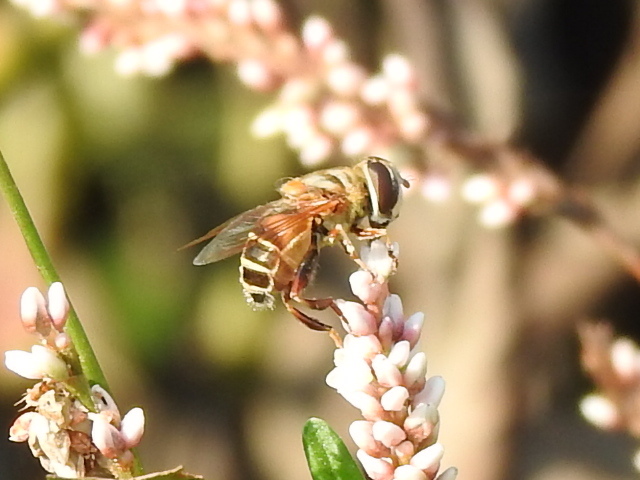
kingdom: Animalia
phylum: Arthropoda
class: Insecta
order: Diptera
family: Syrphidae
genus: Palpada
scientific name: Palpada vinetorum
